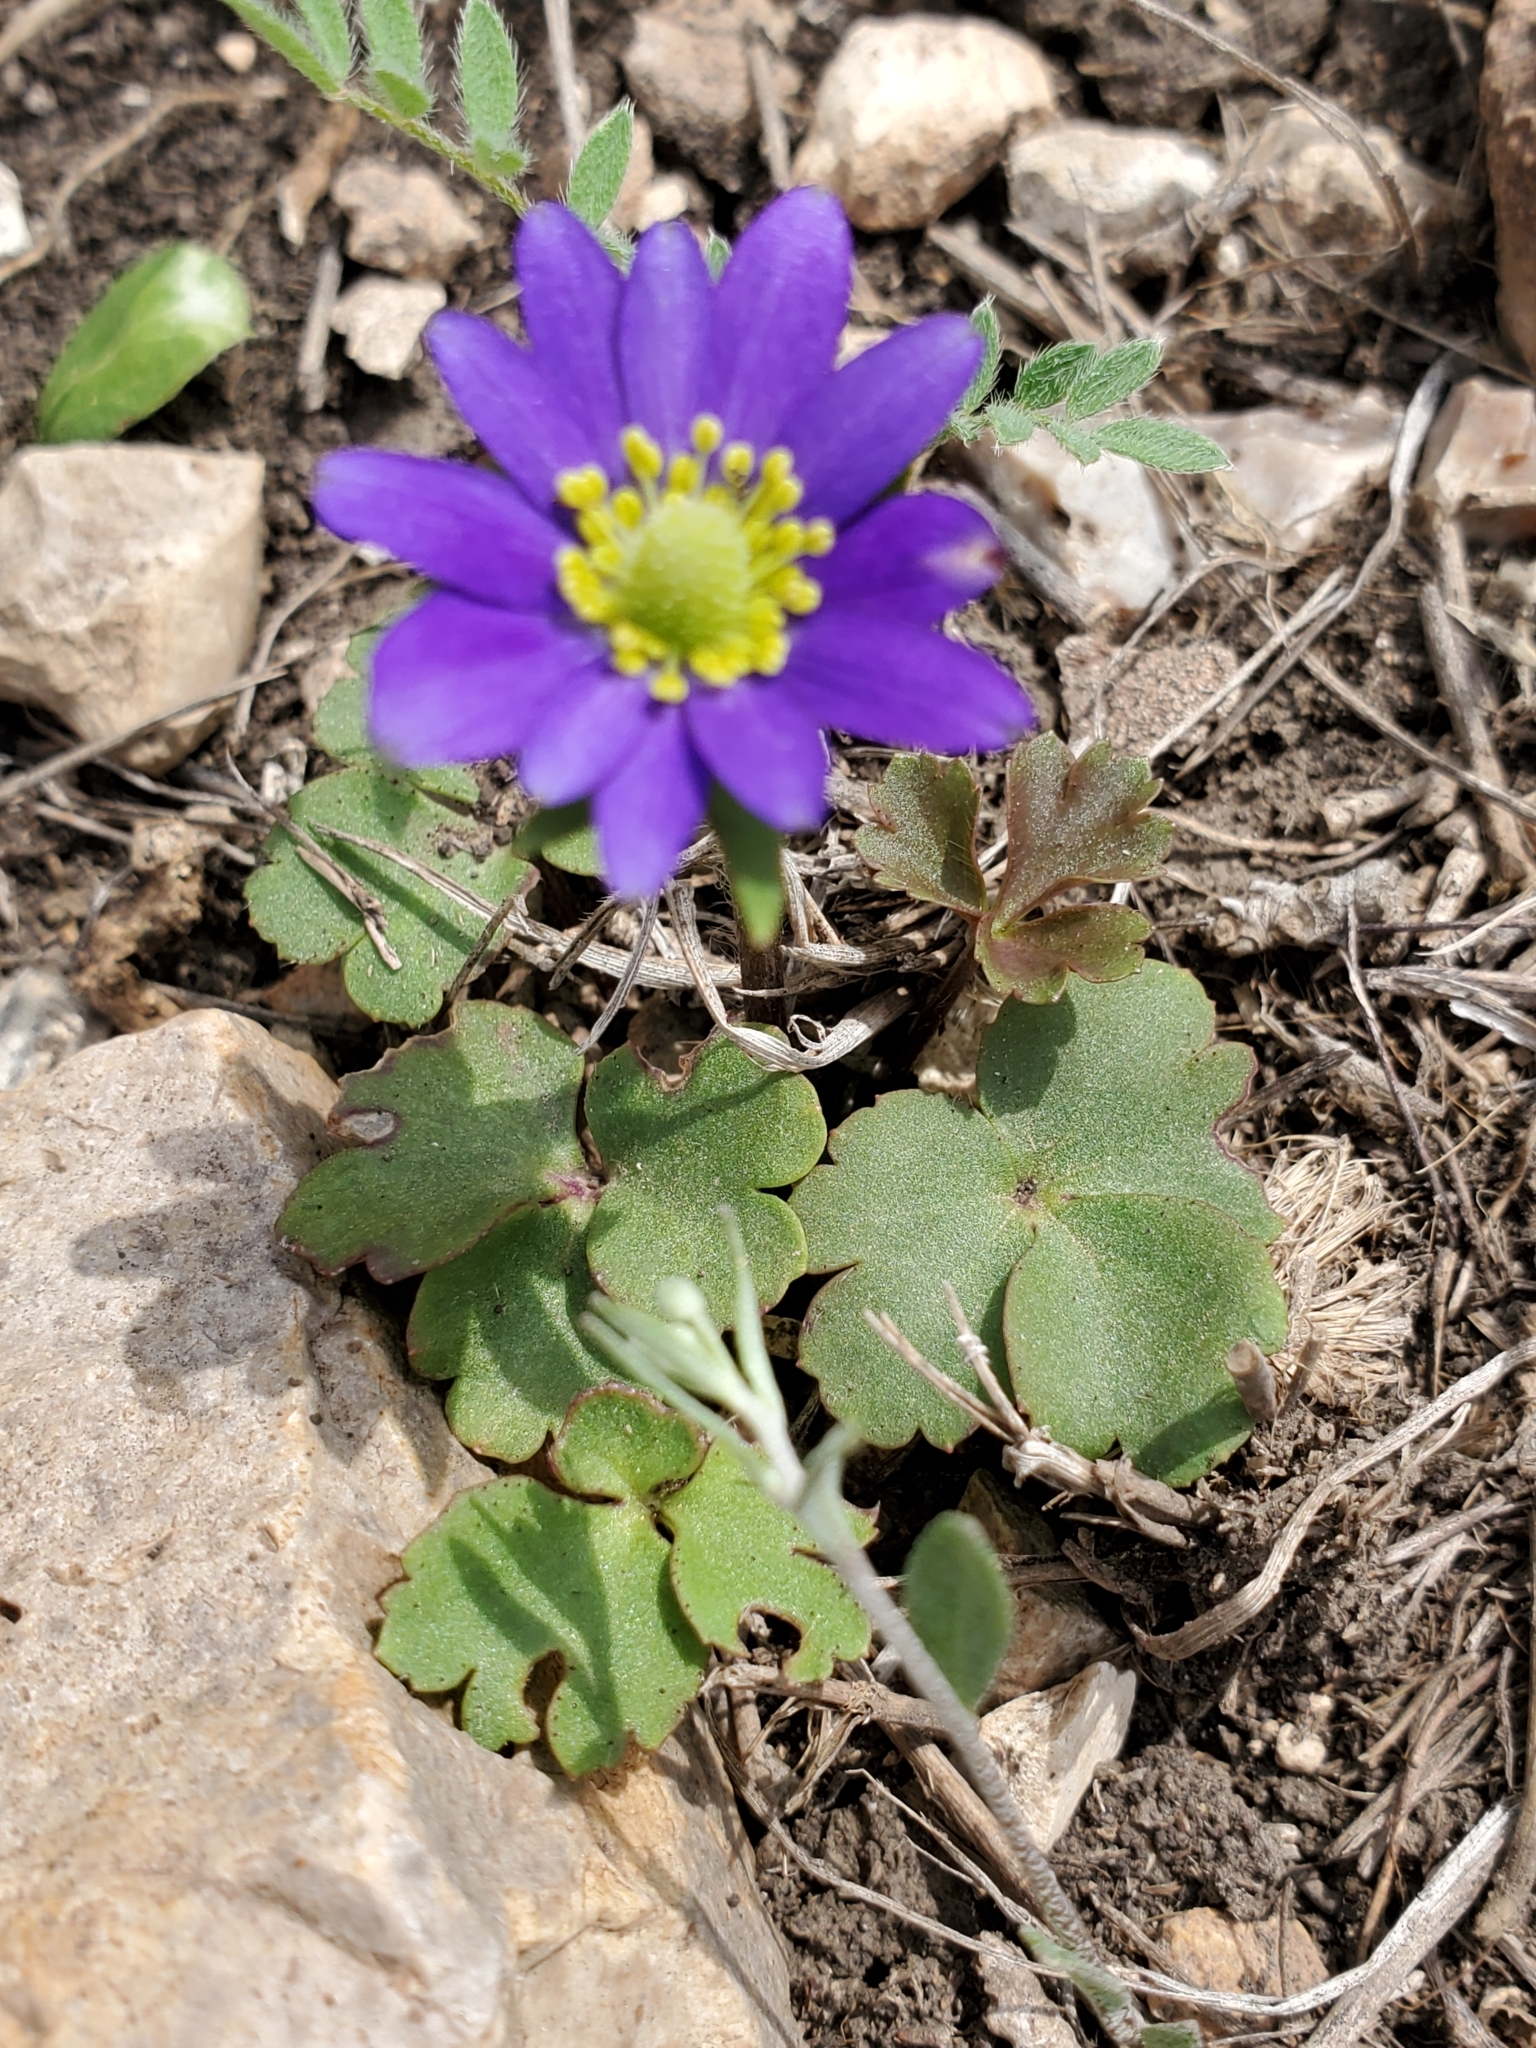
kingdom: Plantae
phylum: Tracheophyta
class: Magnoliopsida
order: Ranunculales
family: Ranunculaceae
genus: Anemone
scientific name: Anemone berlandieri
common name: Ten-petal anemone
